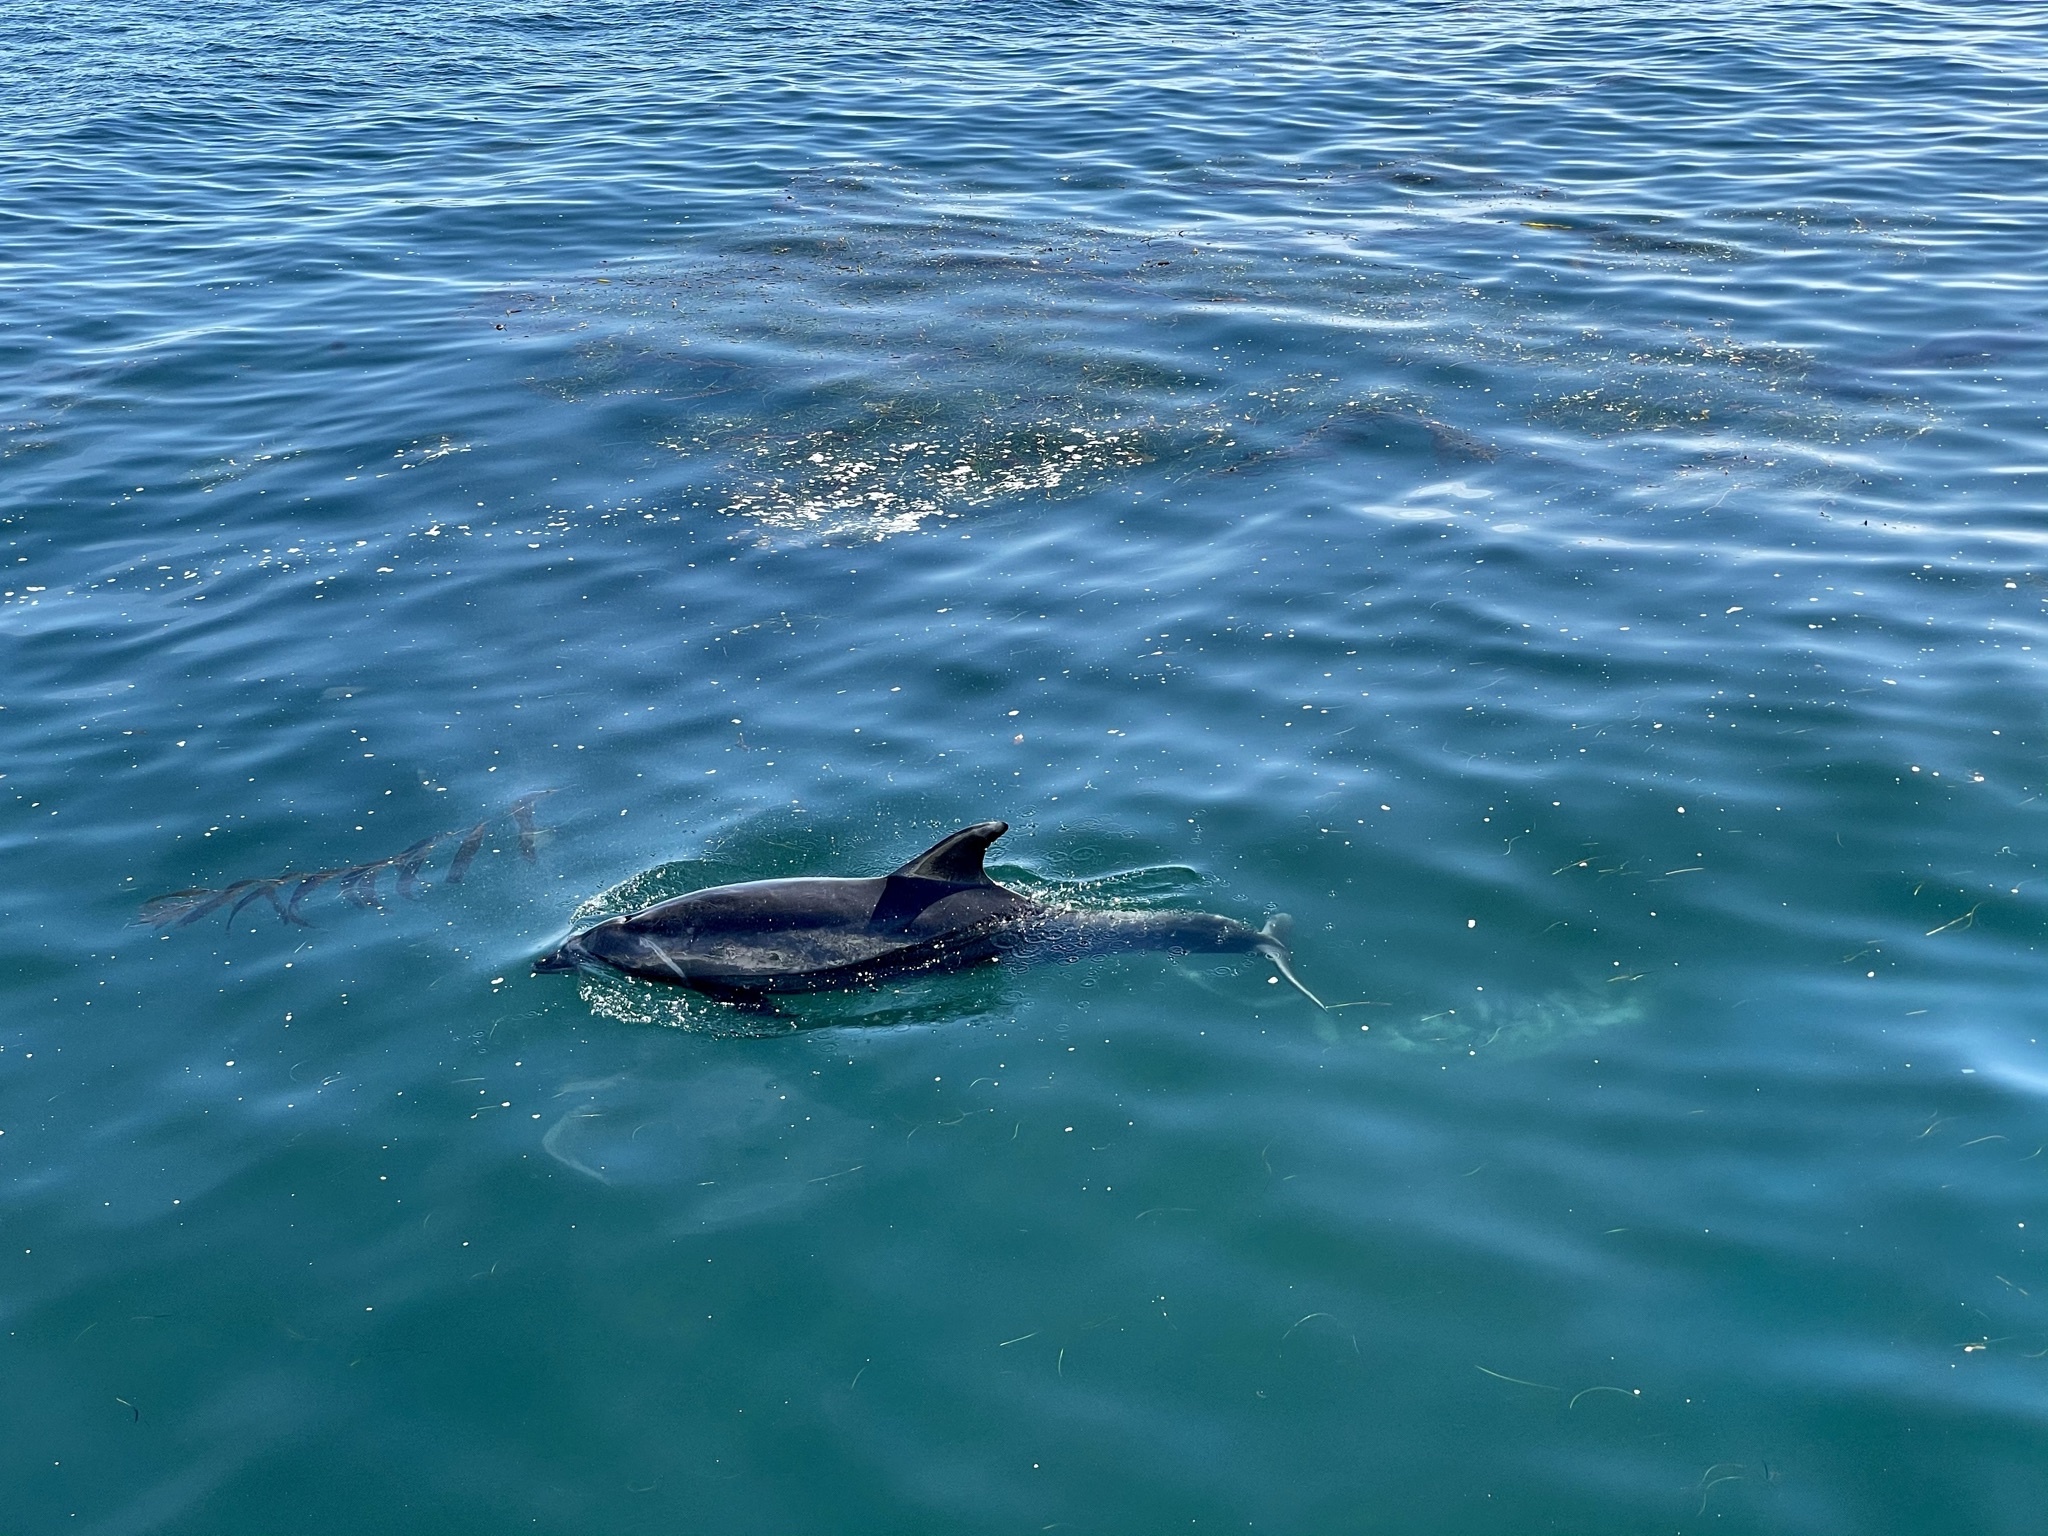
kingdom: Animalia
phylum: Chordata
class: Mammalia
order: Cetacea
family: Delphinidae
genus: Tursiops
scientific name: Tursiops truncatus
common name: Bottlenose dolphin
